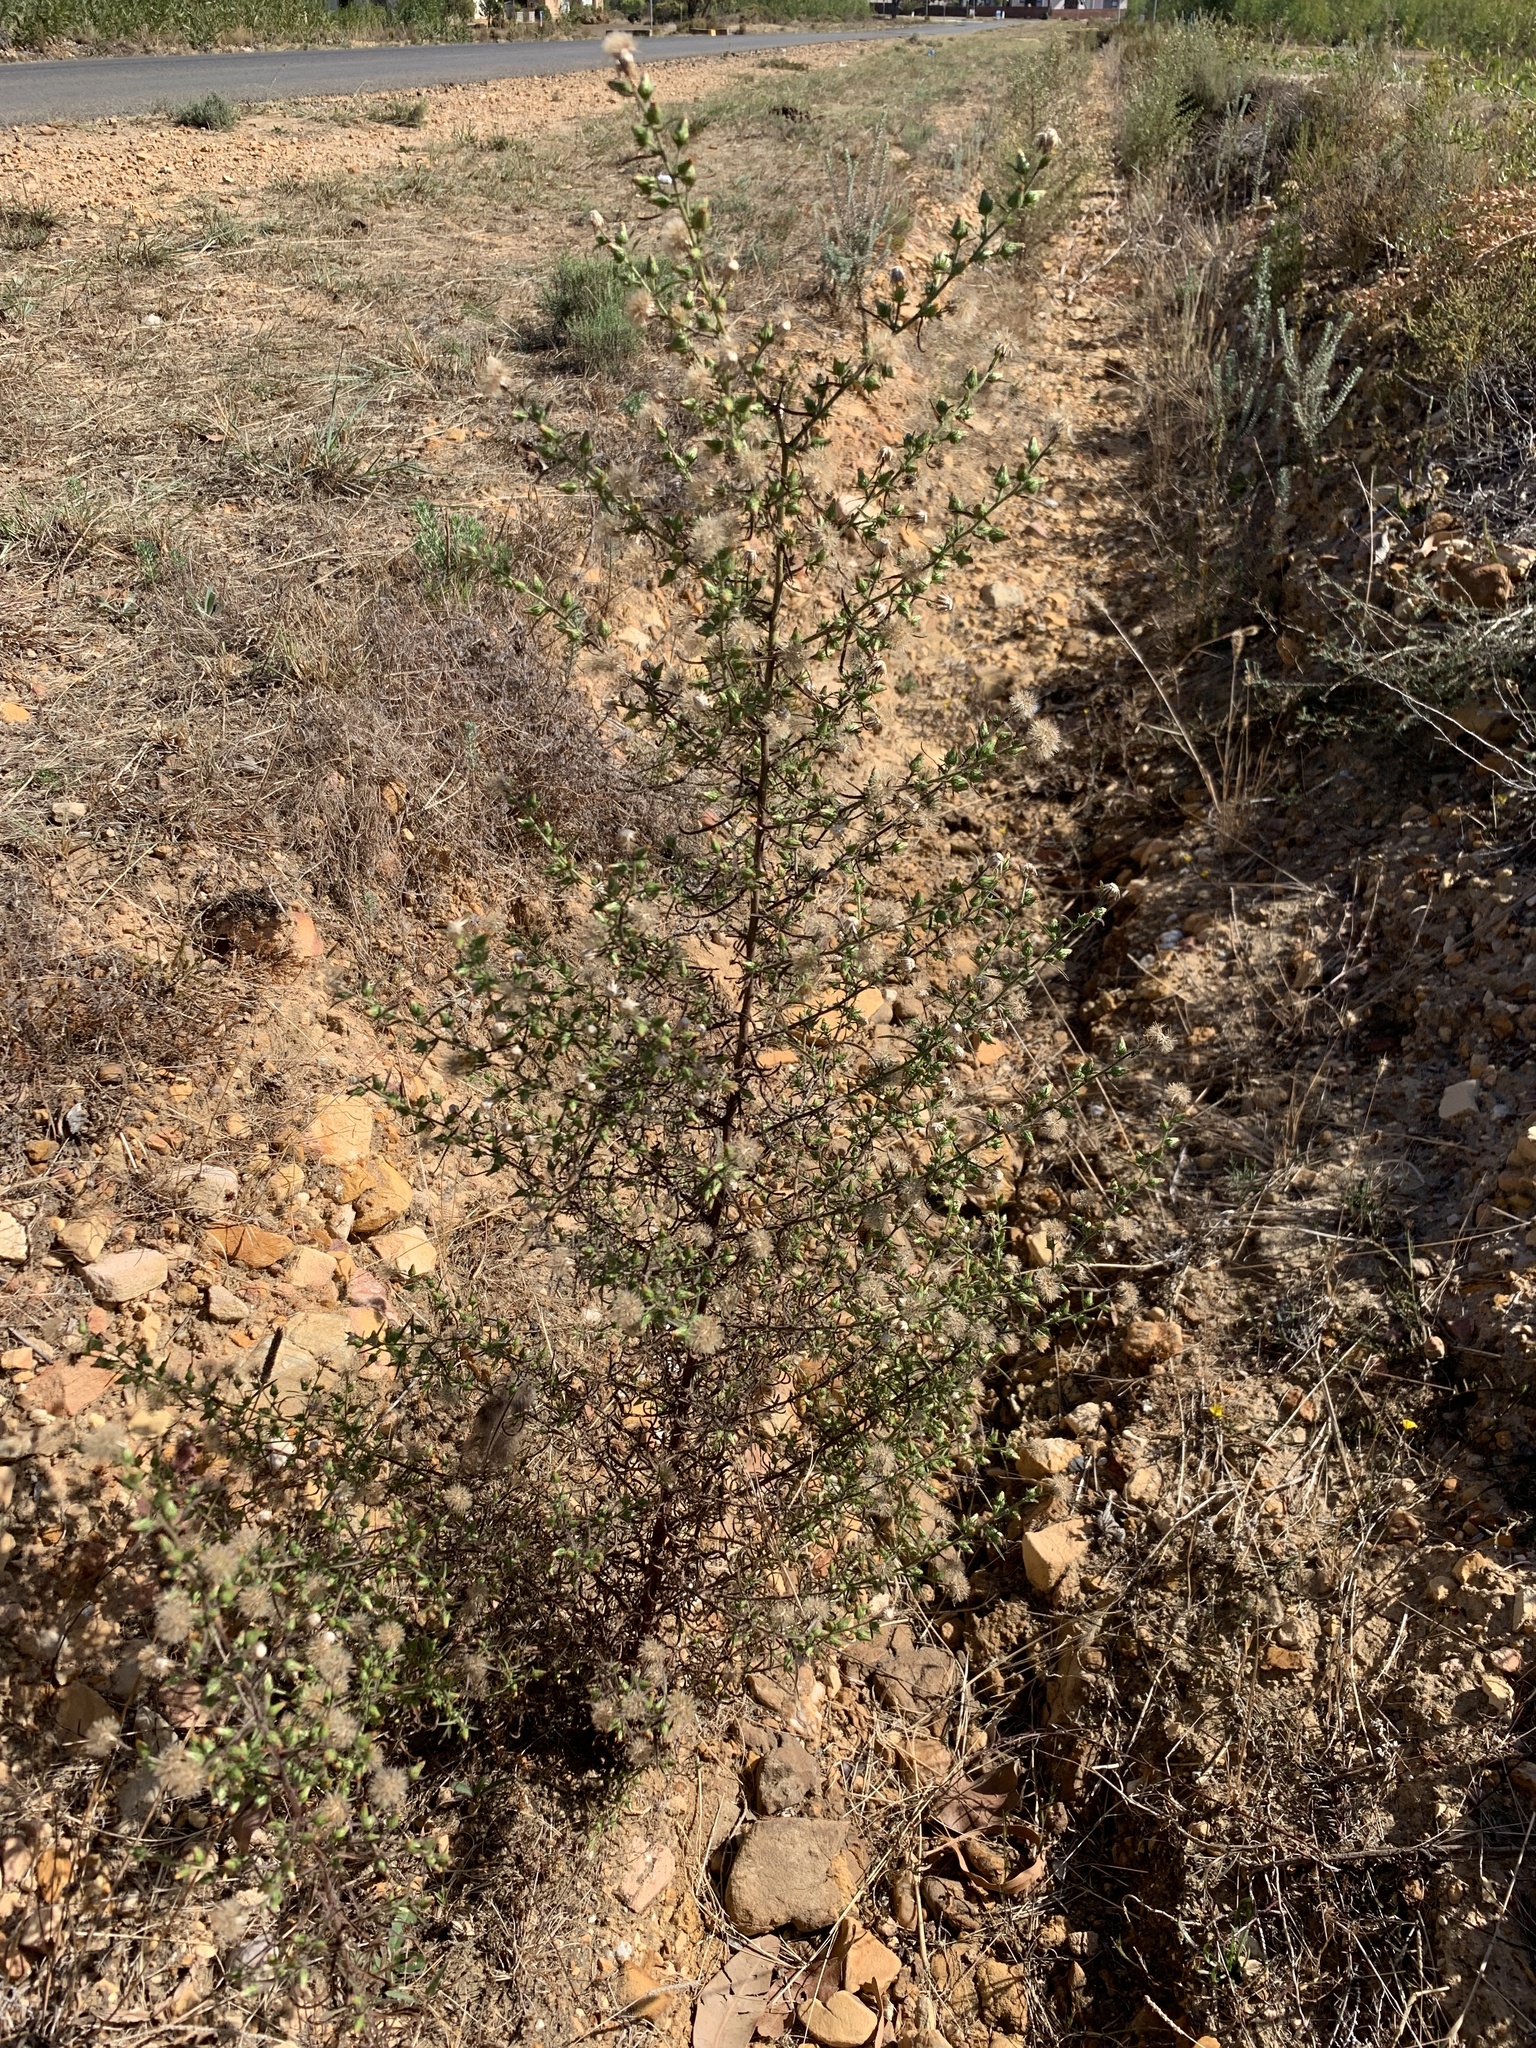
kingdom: Plantae
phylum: Tracheophyta
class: Magnoliopsida
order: Asterales
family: Asteraceae
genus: Dittrichia
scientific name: Dittrichia graveolens
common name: Stinking fleabane
